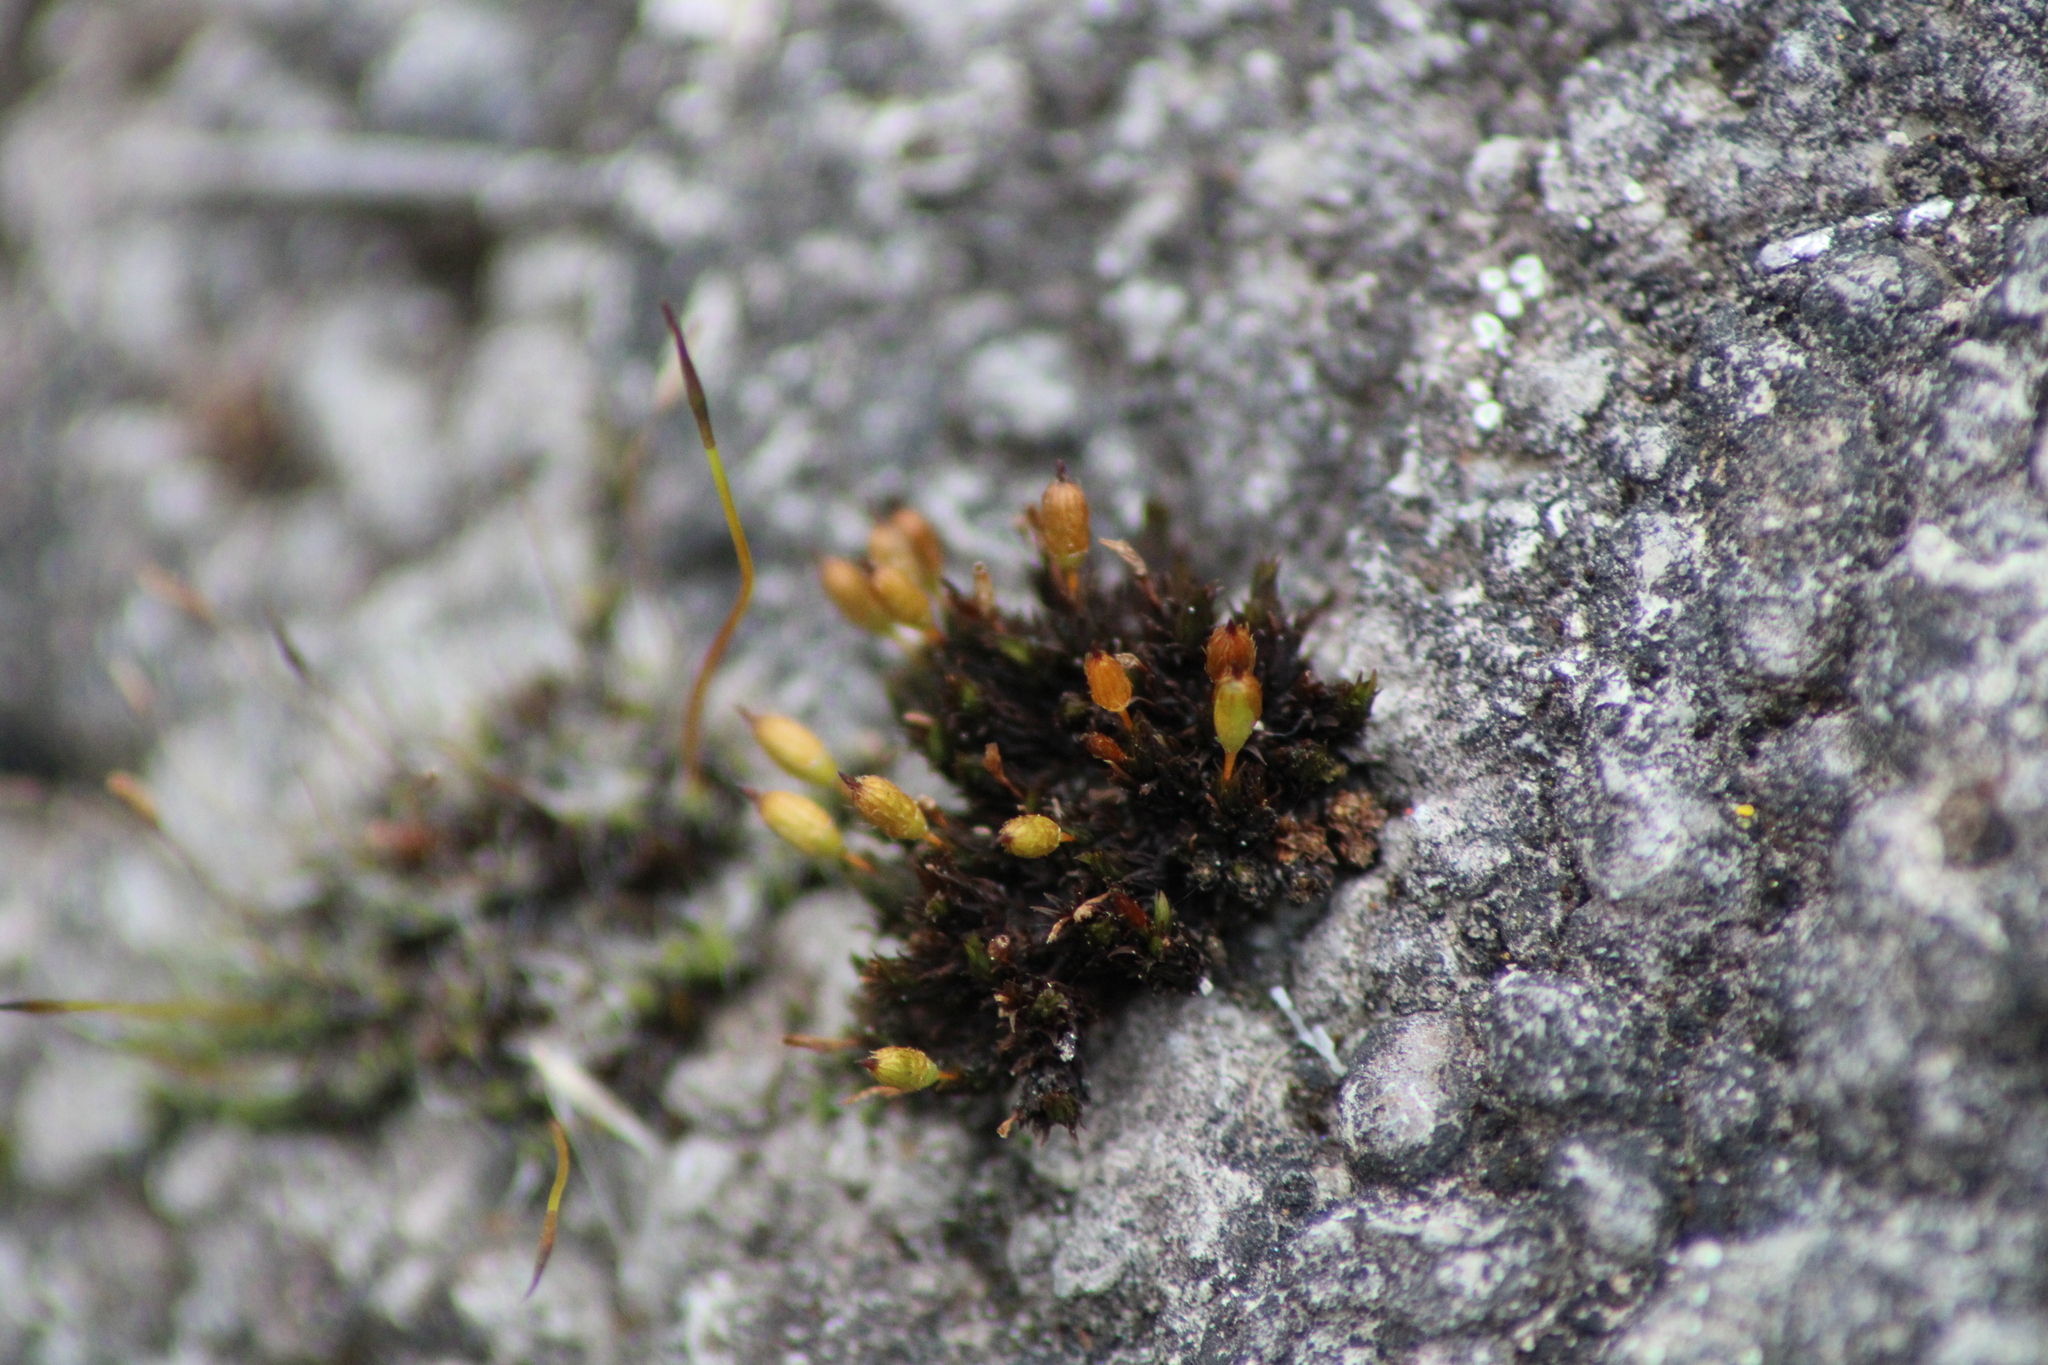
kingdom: Plantae
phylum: Bryophyta
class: Bryopsida
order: Orthotrichales
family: Orthotrichaceae
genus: Orthotrichum
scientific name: Orthotrichum anomalum
